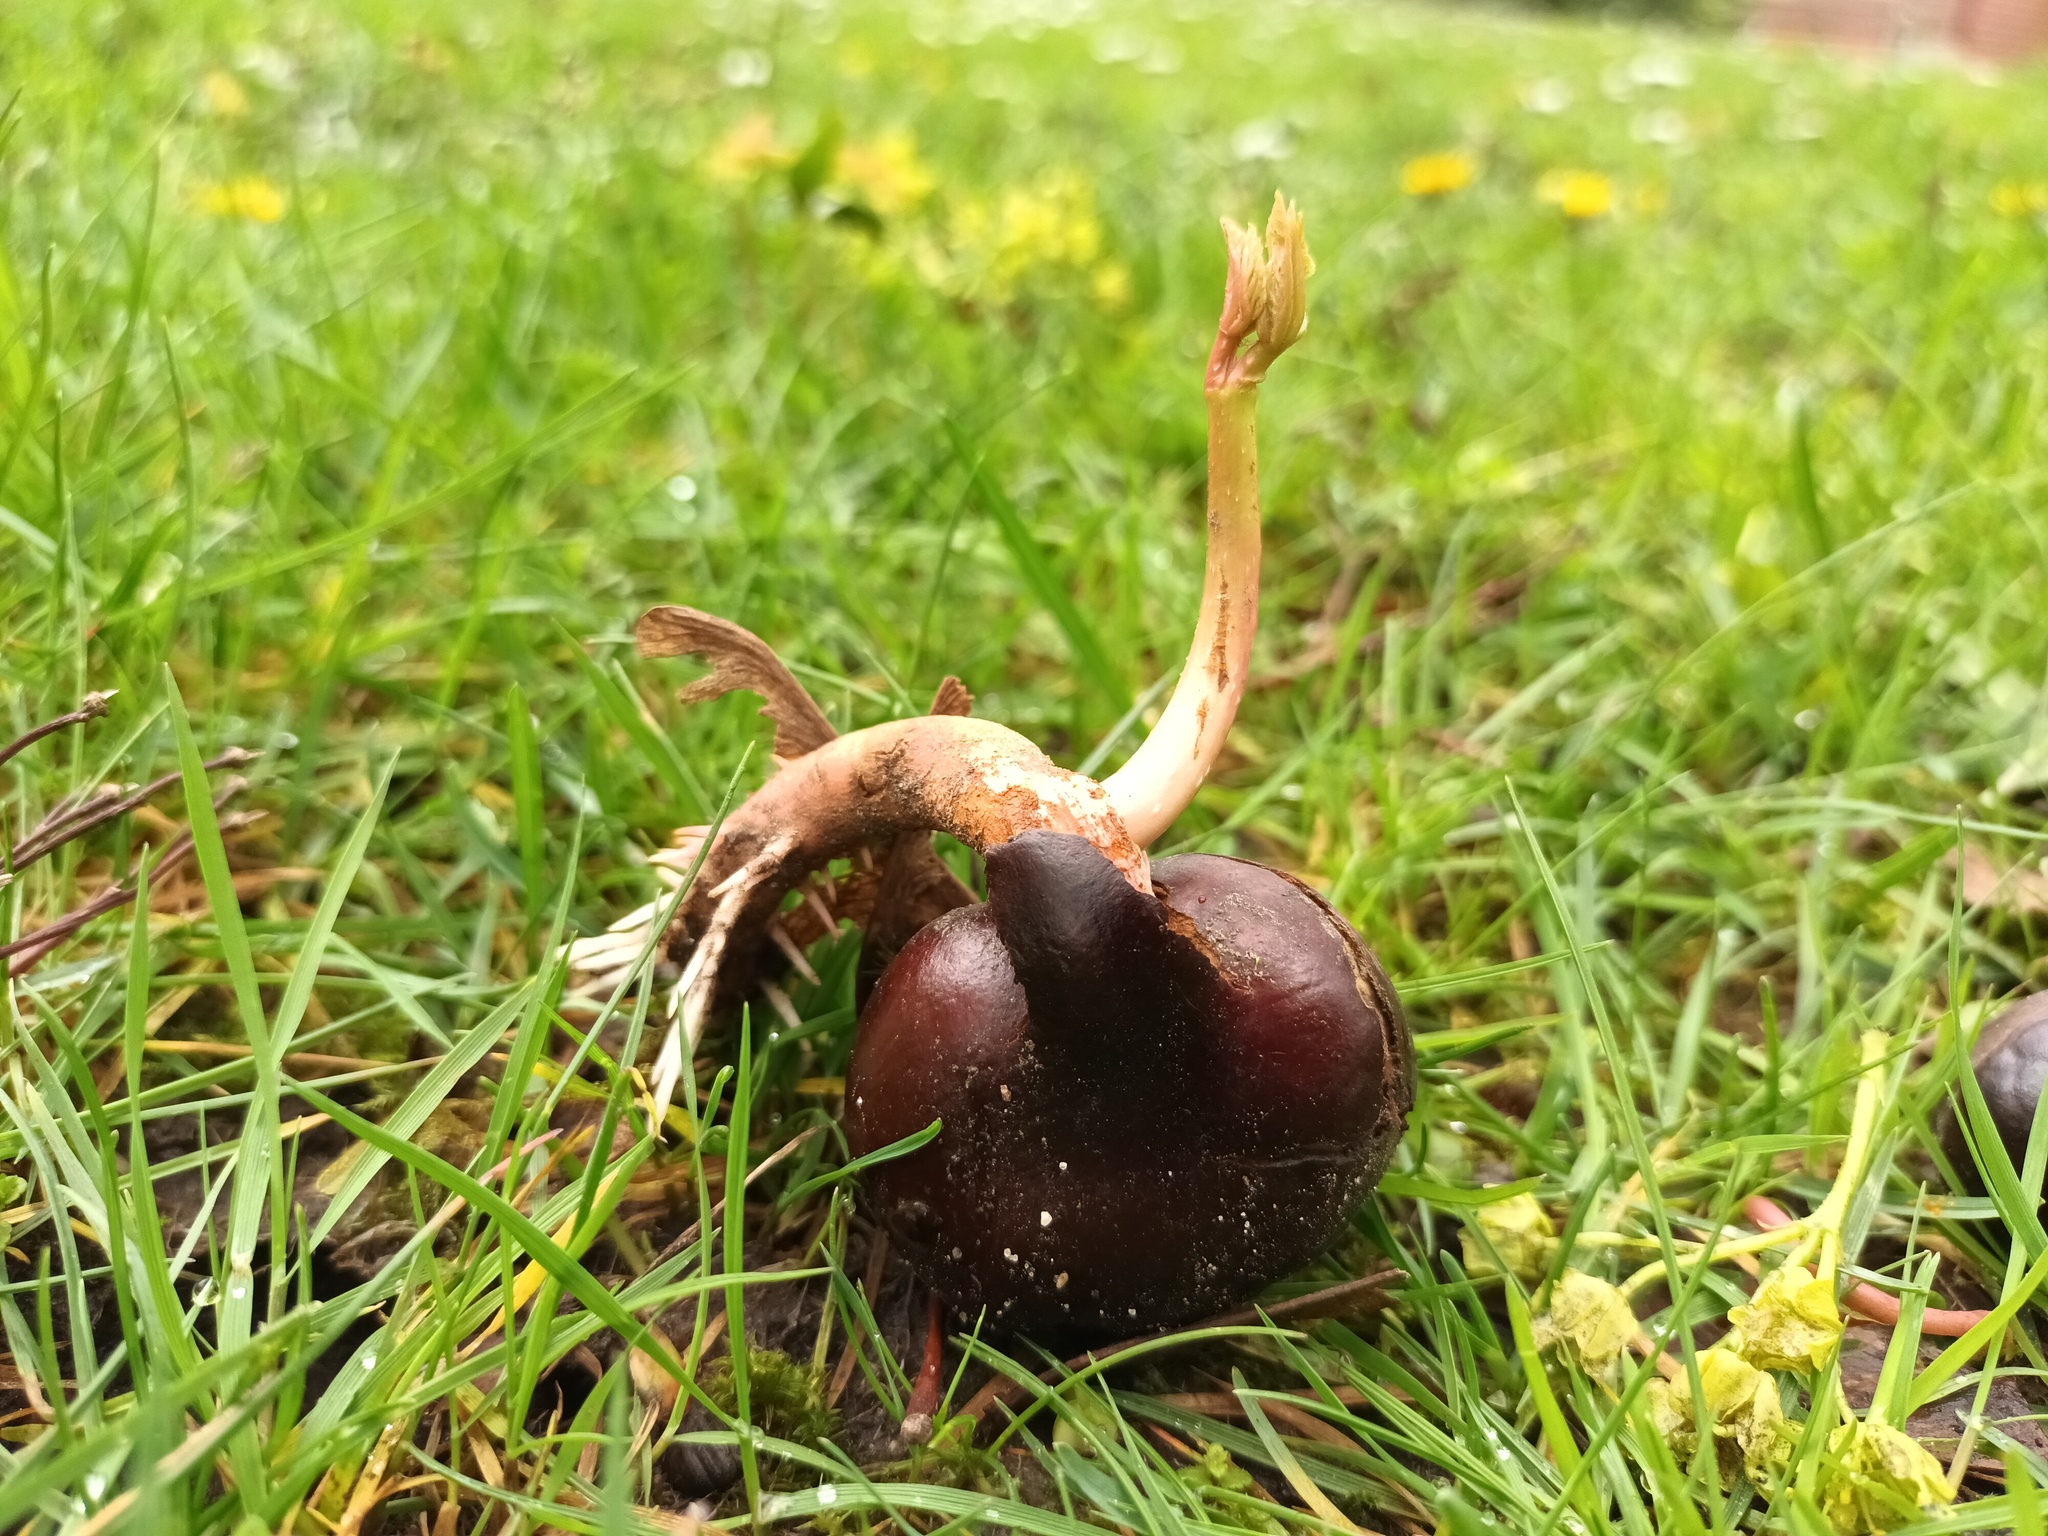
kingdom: Plantae
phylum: Tracheophyta
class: Magnoliopsida
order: Sapindales
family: Sapindaceae
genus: Aesculus
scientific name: Aesculus hippocastanum
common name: Horse-chestnut
